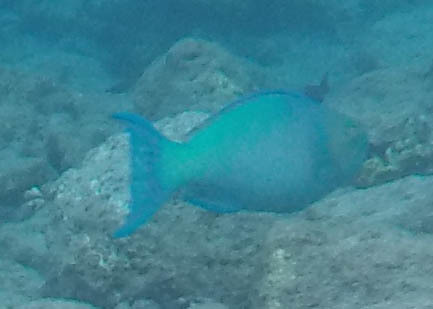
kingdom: Animalia
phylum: Chordata
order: Perciformes
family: Scaridae
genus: Scarus
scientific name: Scarus rubroviolaceus
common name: Ember parrotfish
